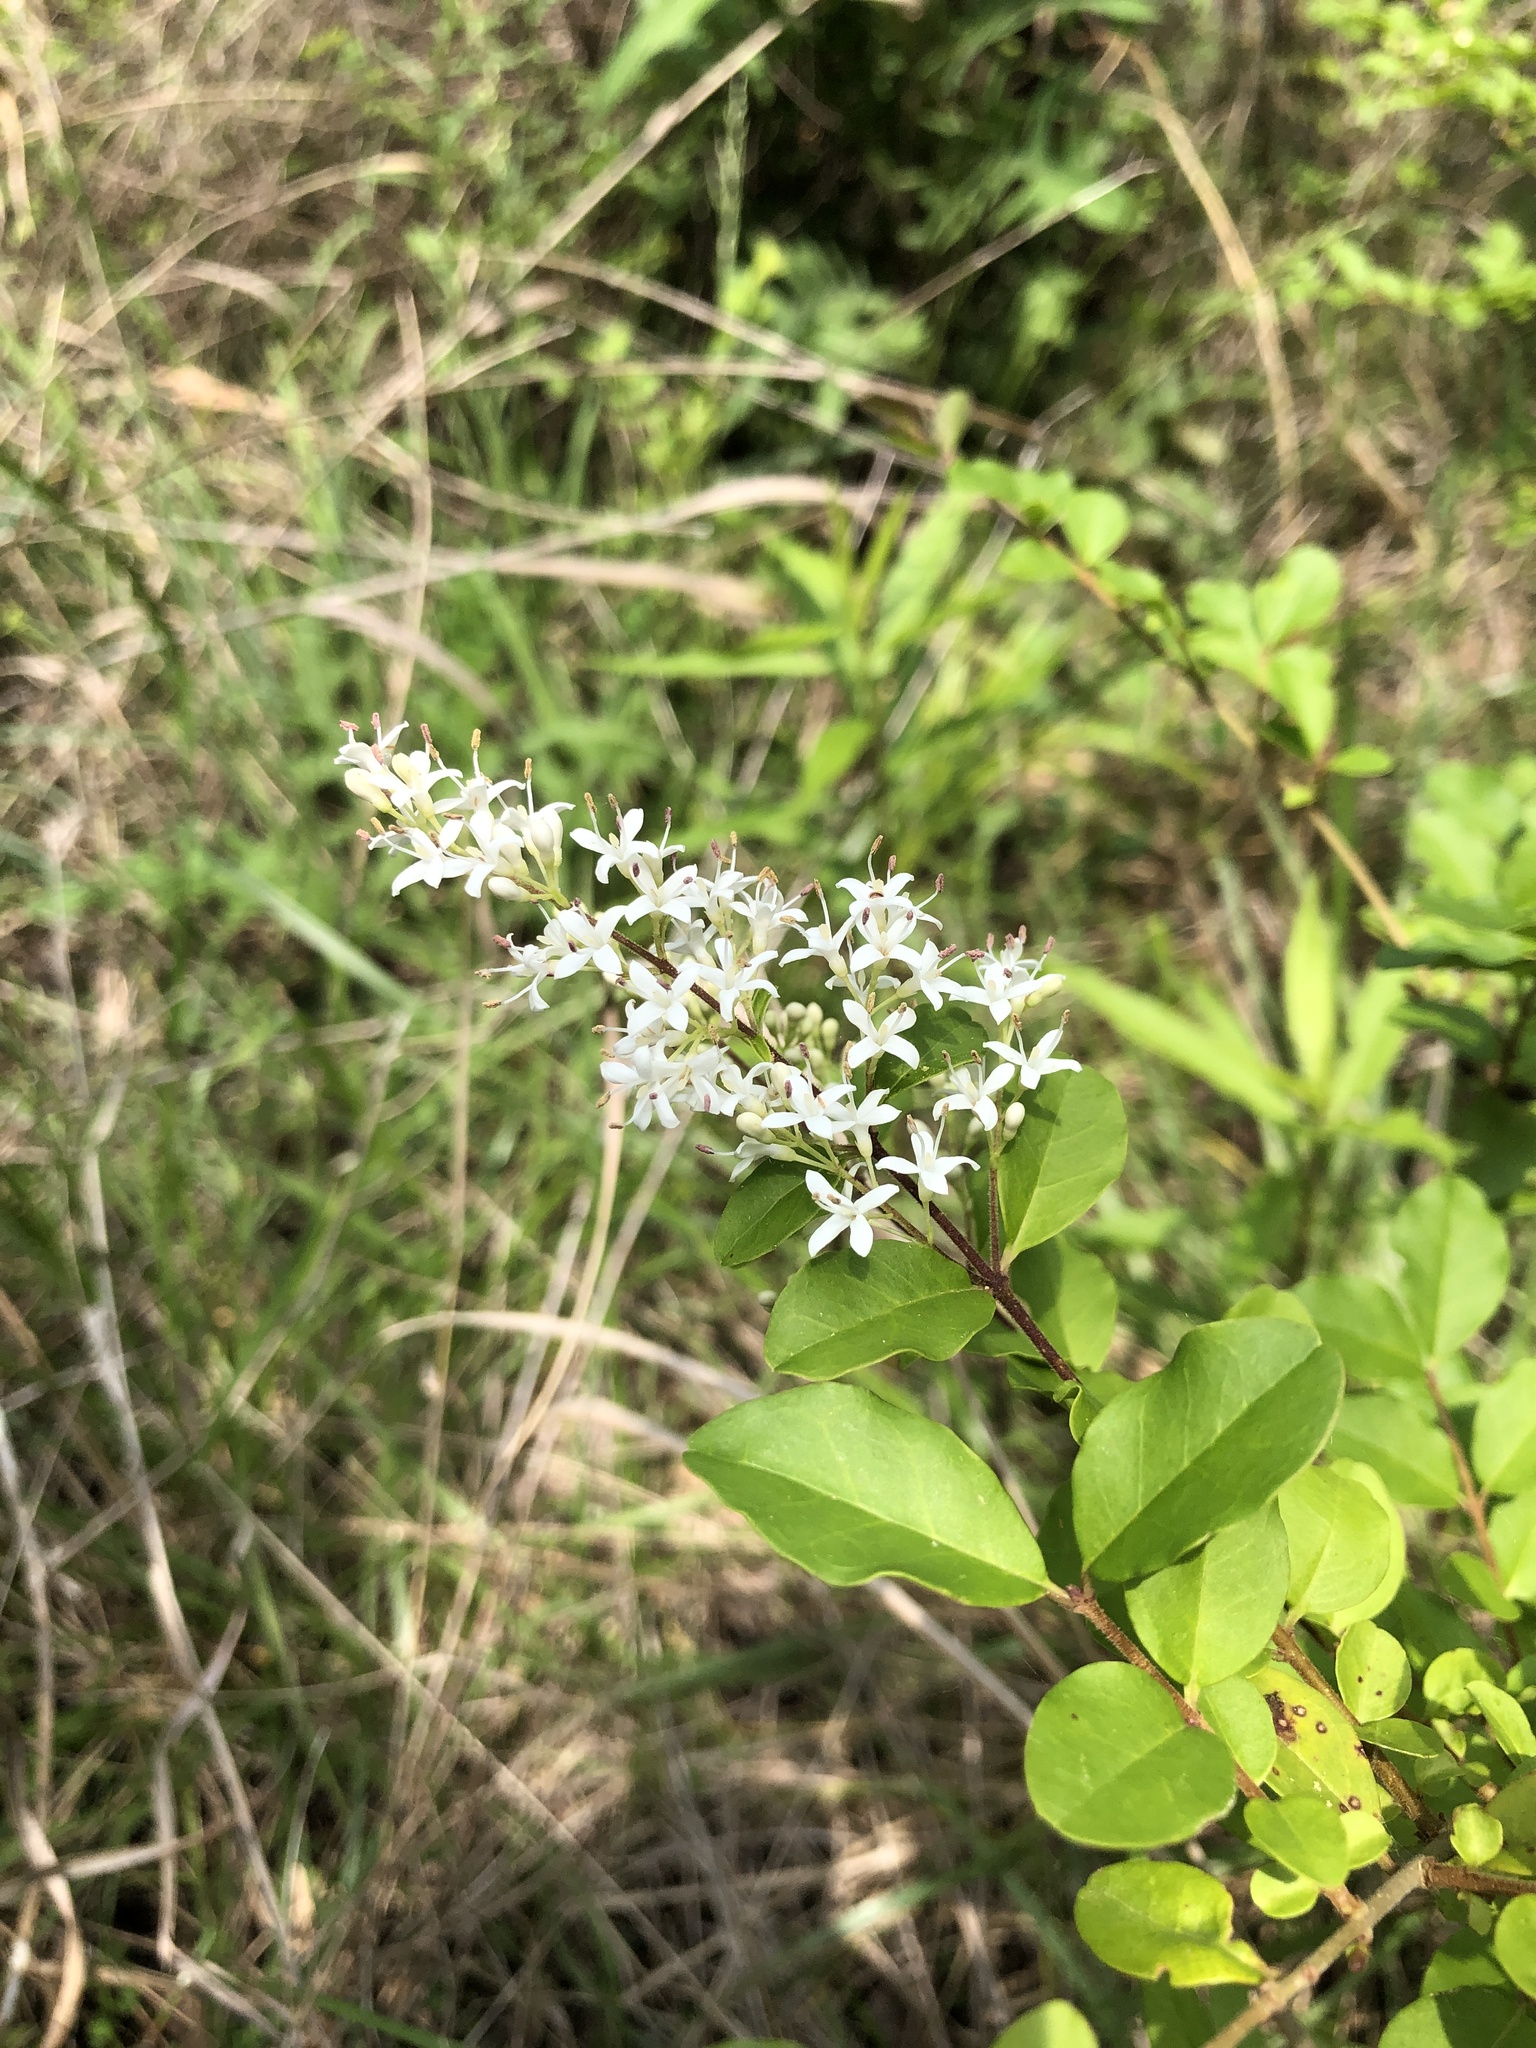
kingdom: Plantae
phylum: Tracheophyta
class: Magnoliopsida
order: Lamiales
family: Oleaceae
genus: Ligustrum
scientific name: Ligustrum sinense
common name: Chinese privet
